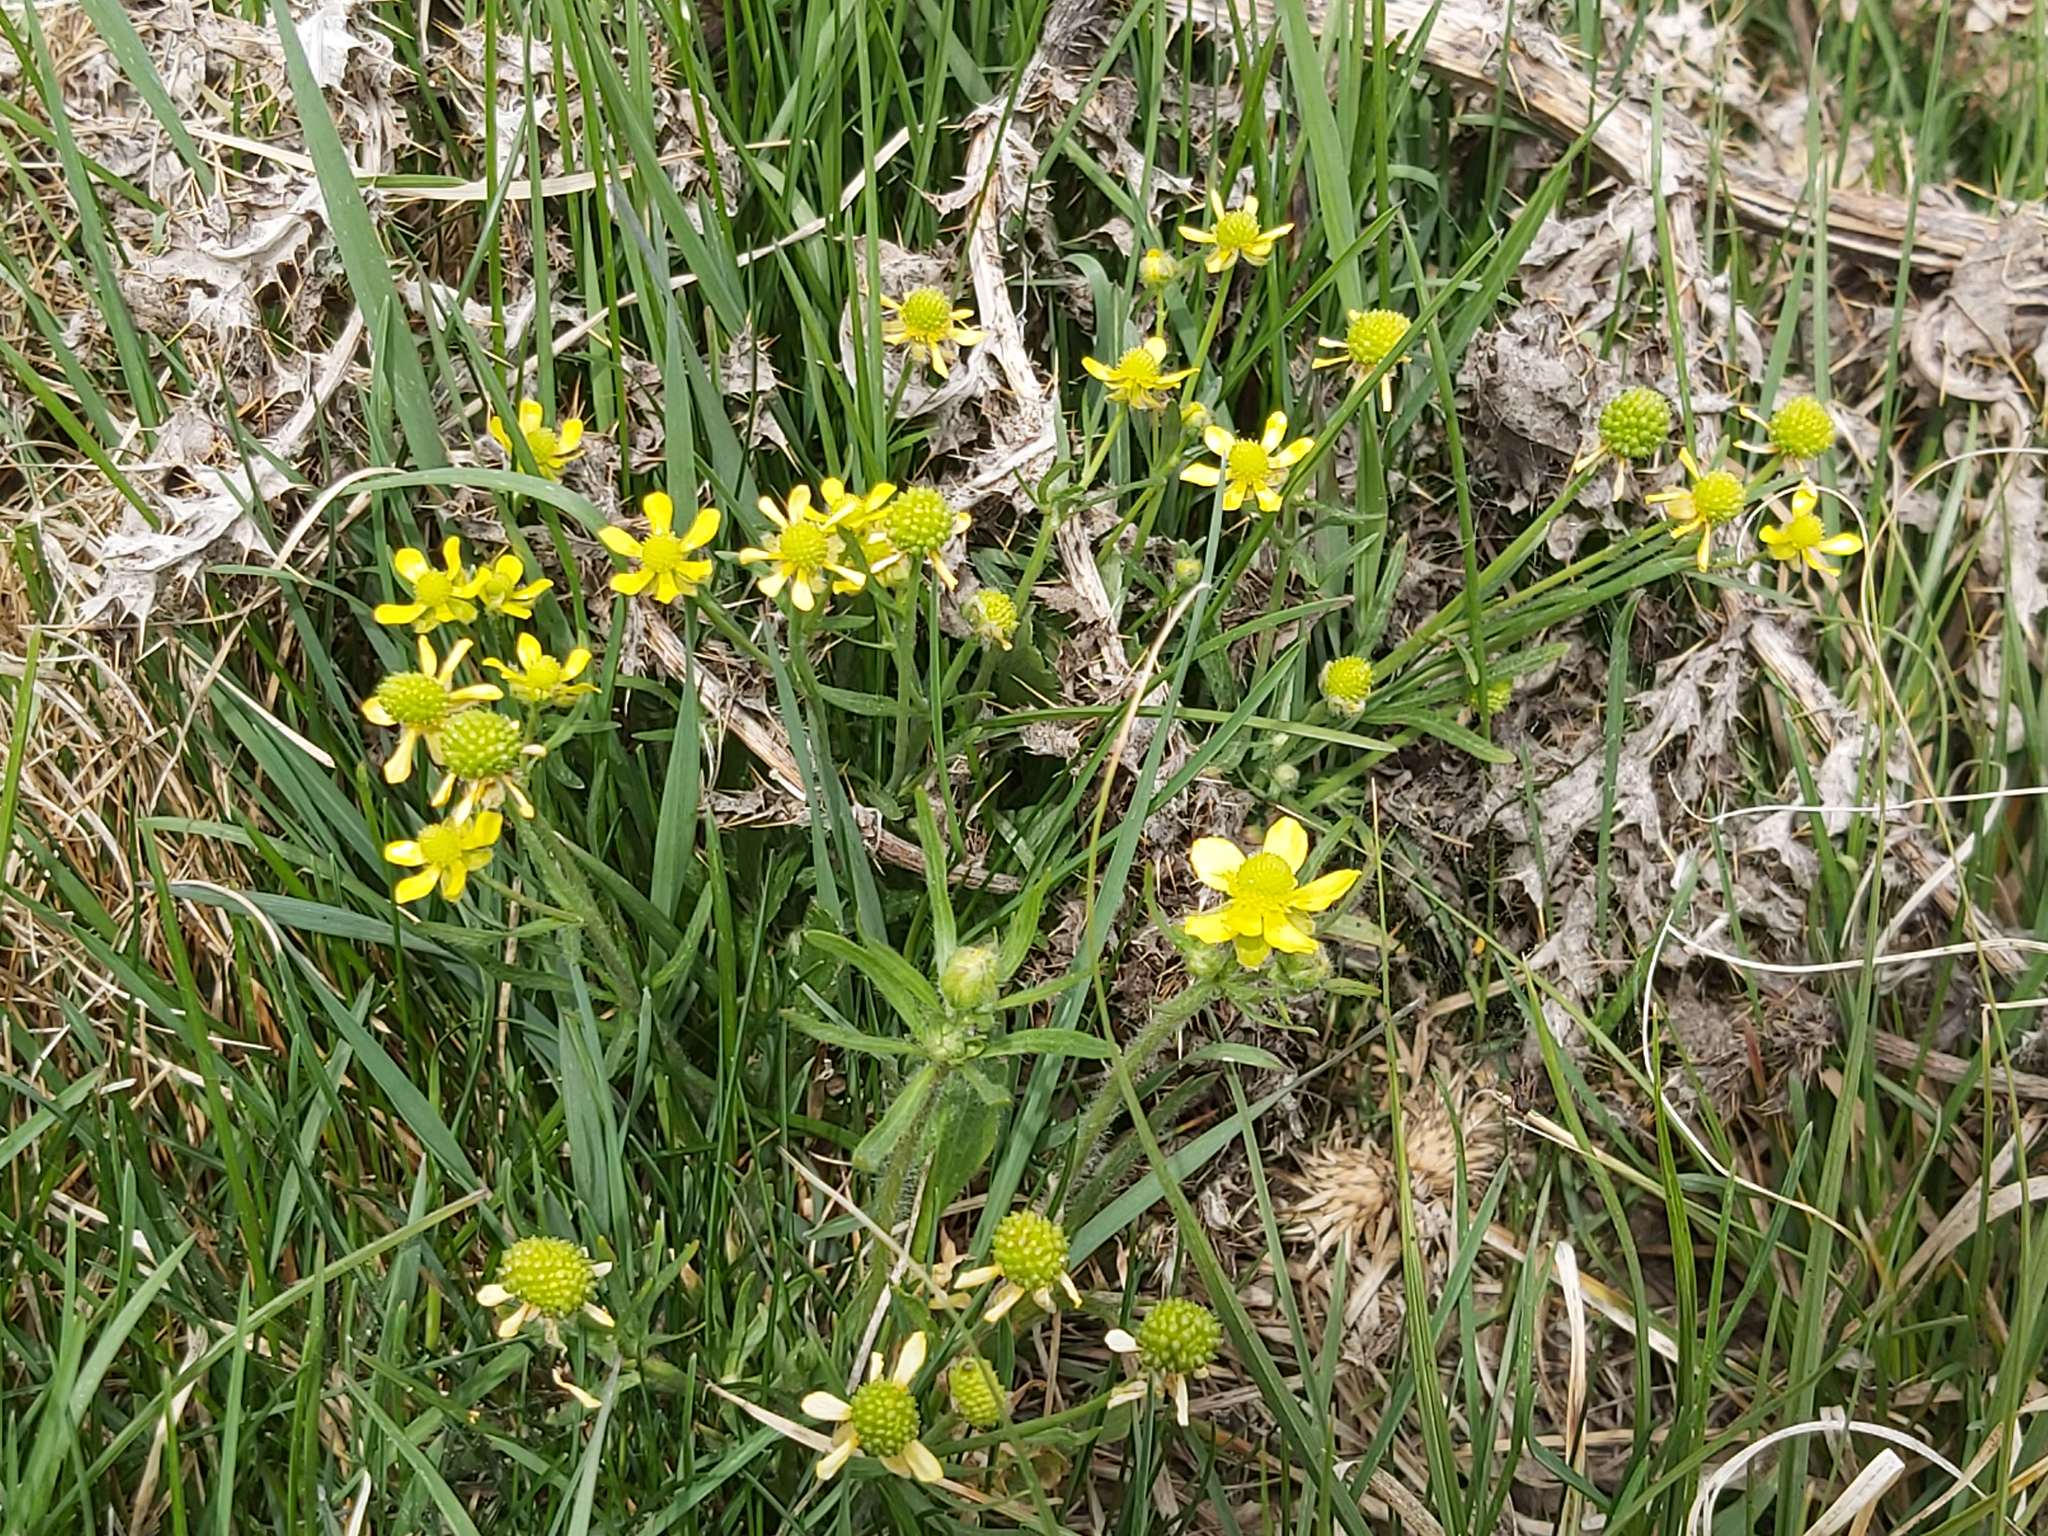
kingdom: Plantae
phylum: Tracheophyta
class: Magnoliopsida
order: Ranunculales
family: Ranunculaceae
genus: Ranunculus
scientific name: Ranunculus rhomboideus
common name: Prairie buttercup
